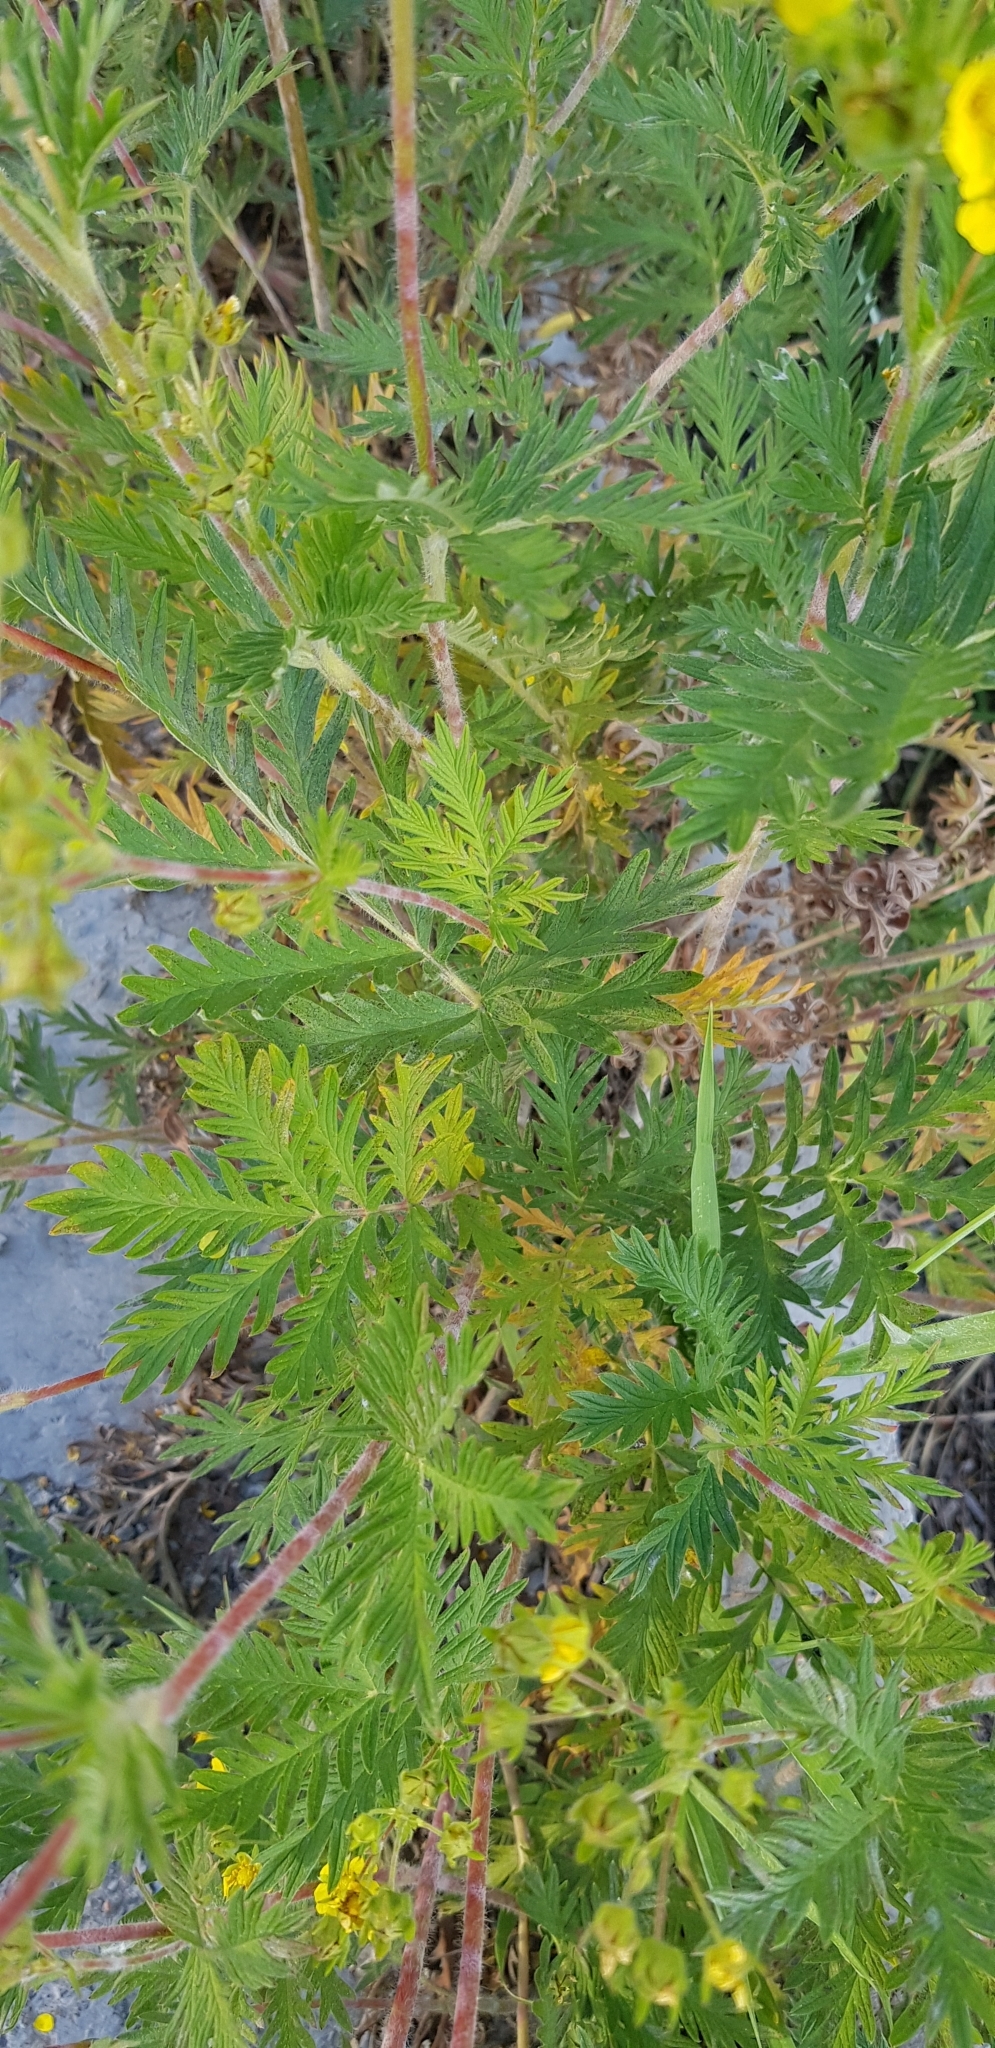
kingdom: Plantae
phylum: Tracheophyta
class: Magnoliopsida
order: Rosales
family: Rosaceae
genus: Potentilla
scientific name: Potentilla tanacetifolia
